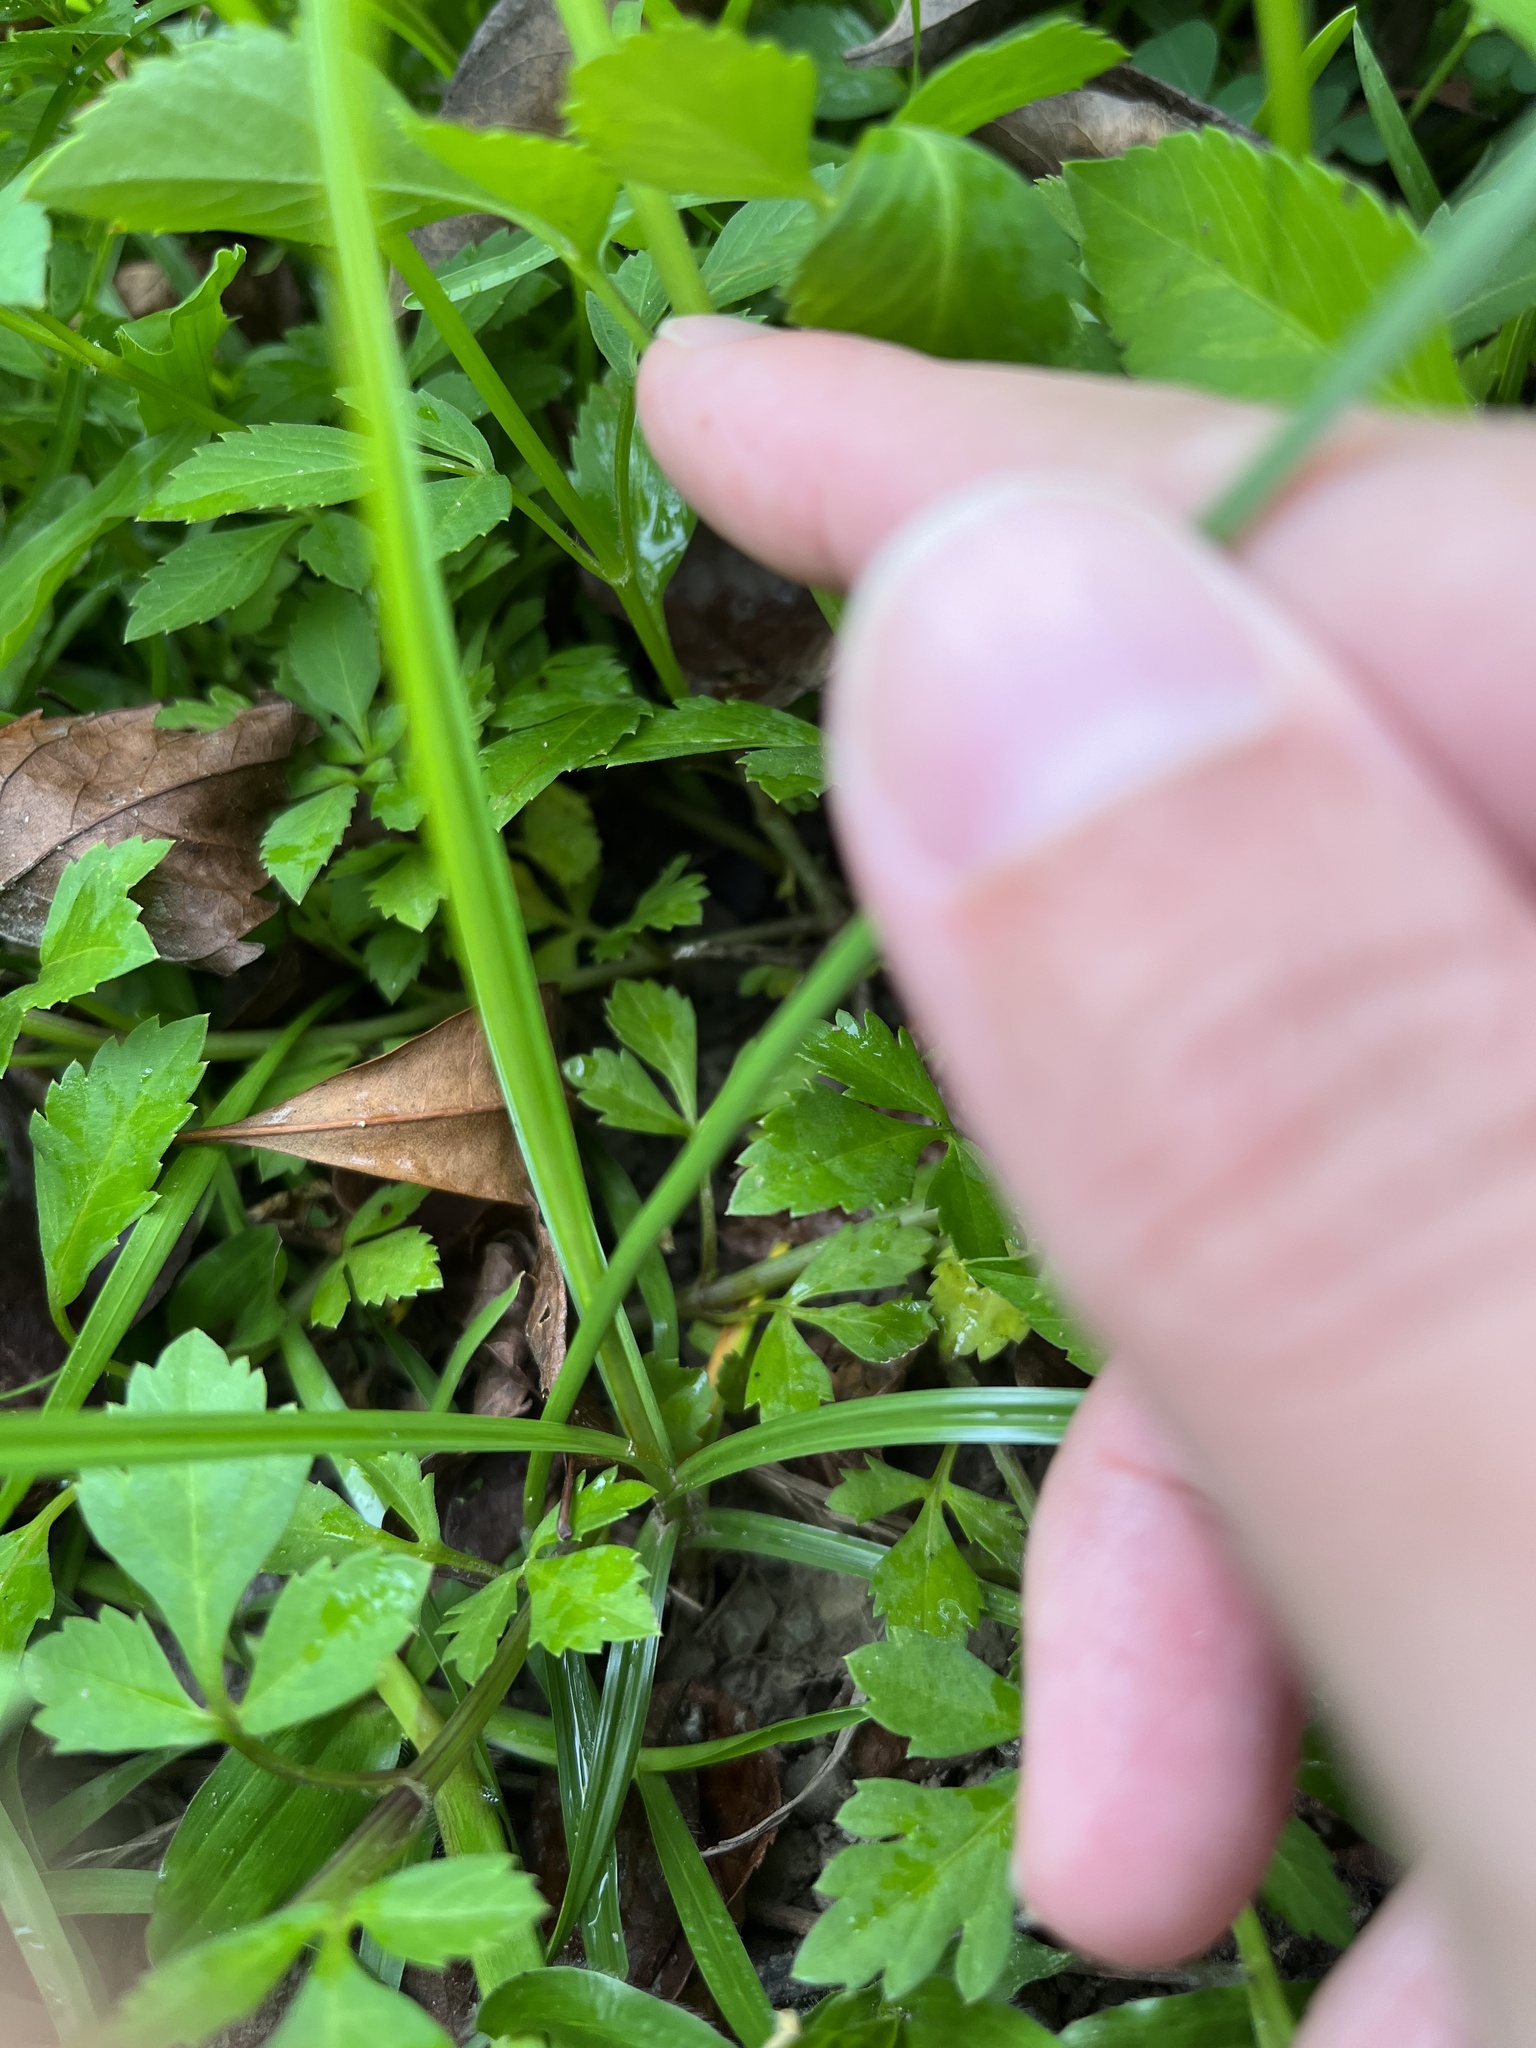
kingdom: Plantae
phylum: Tracheophyta
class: Liliopsida
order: Poales
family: Cyperaceae
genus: Cyperus
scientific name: Cyperus rotundus
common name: Nutgrass
